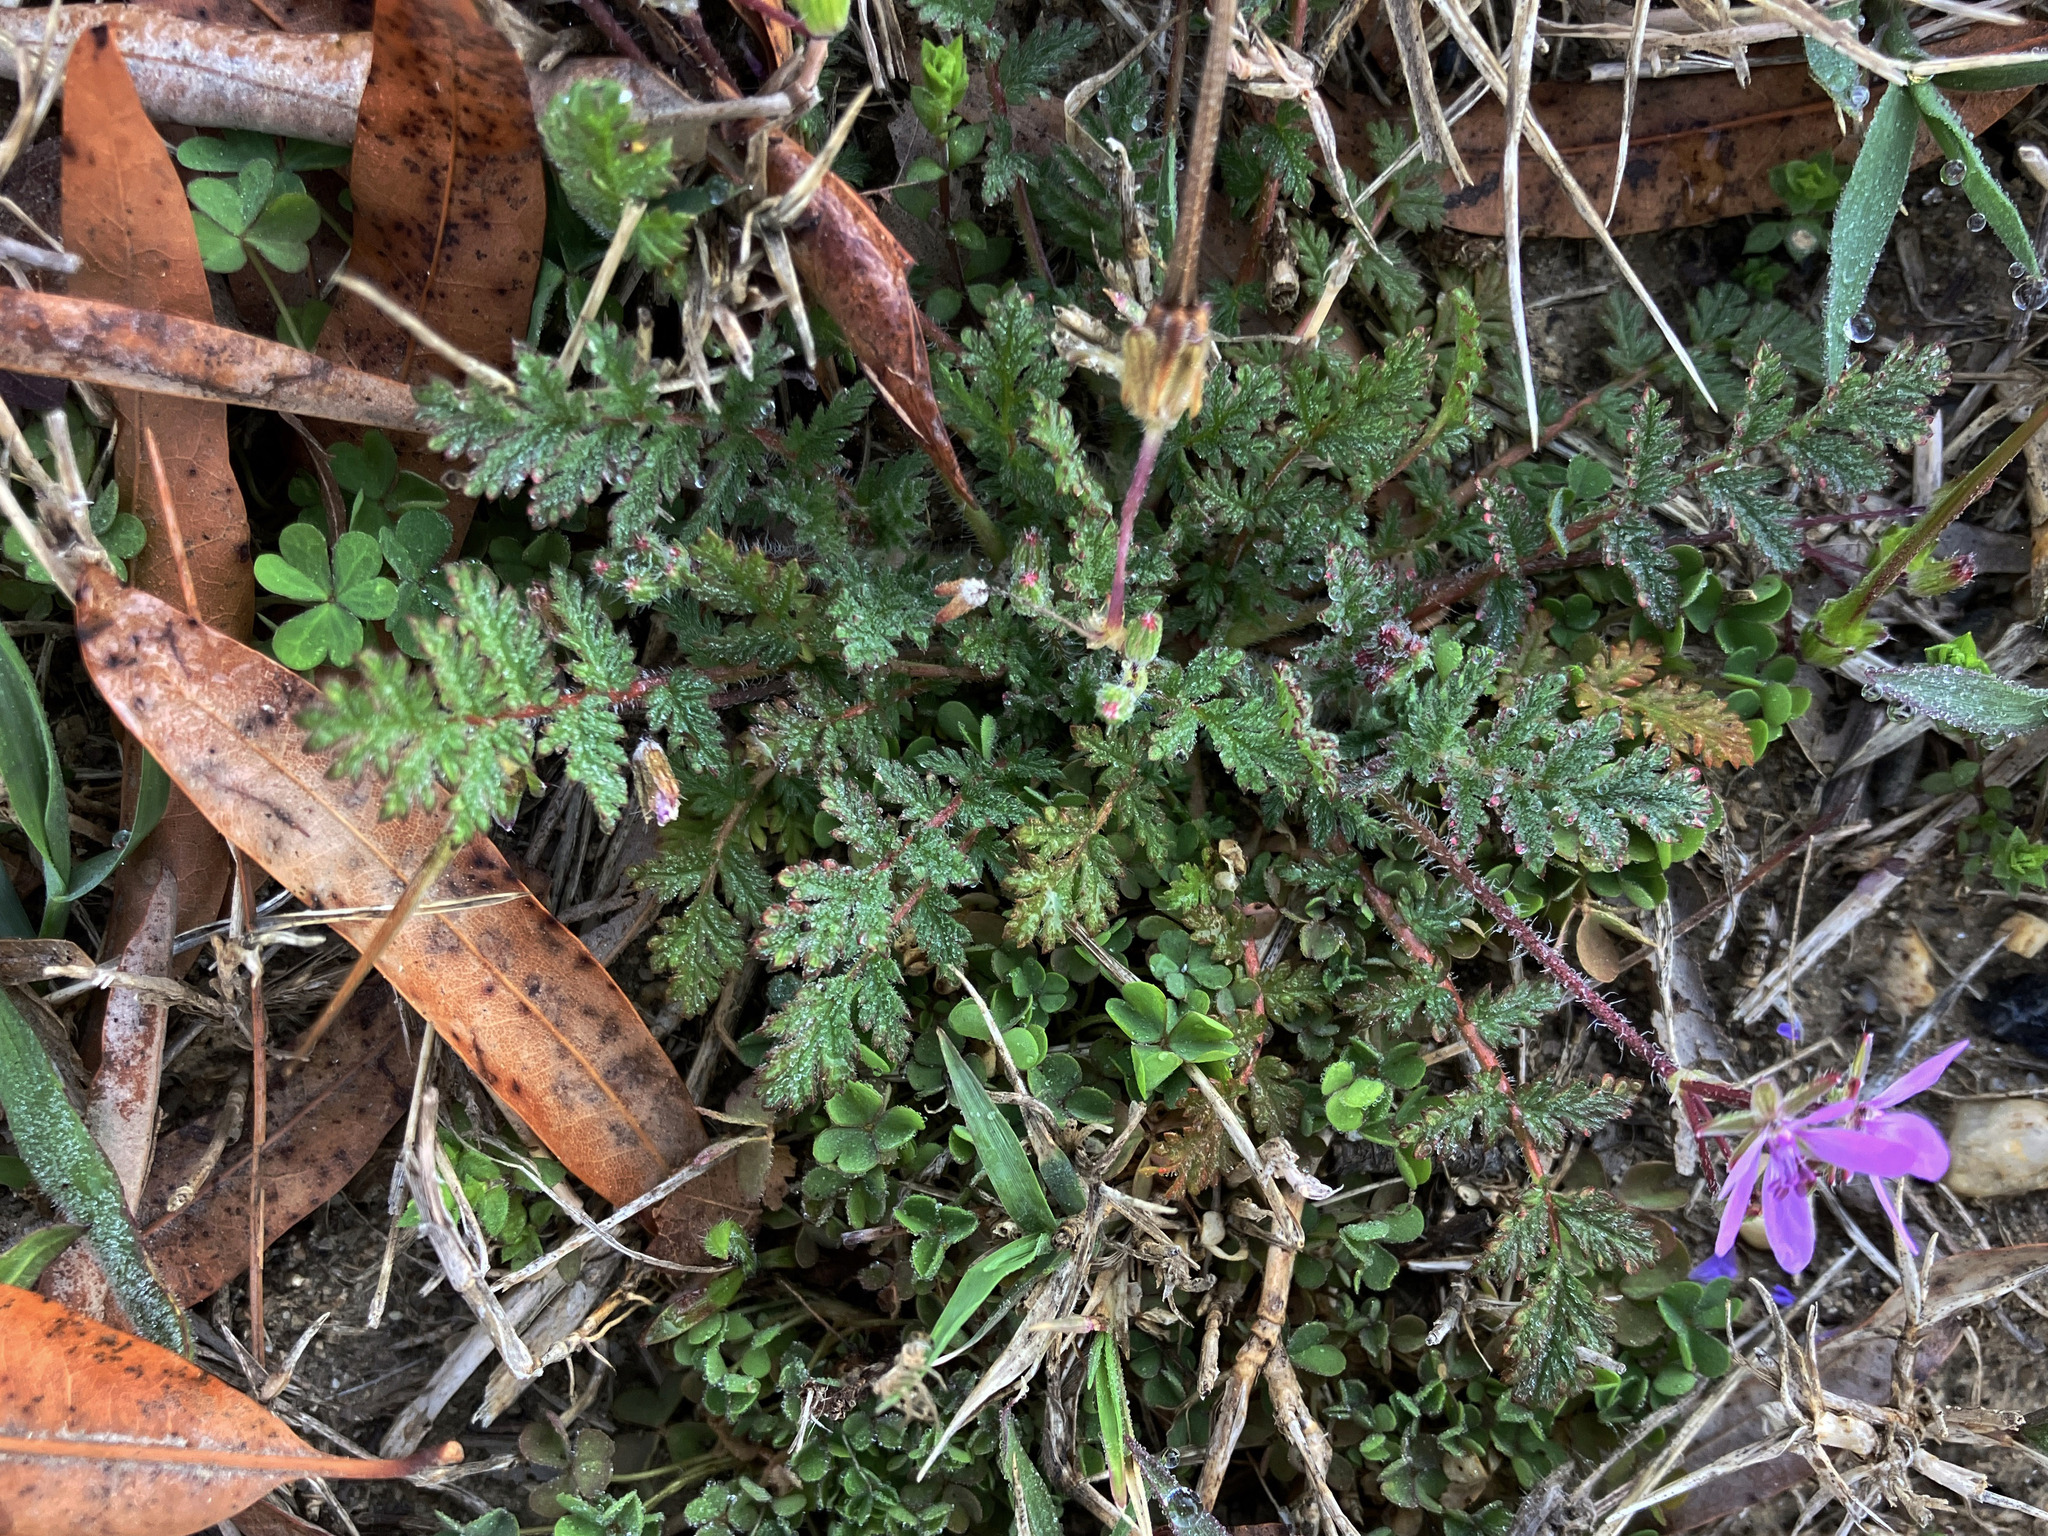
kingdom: Plantae
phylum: Tracheophyta
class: Magnoliopsida
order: Geraniales
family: Geraniaceae
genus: Erodium
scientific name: Erodium cicutarium
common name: Common stork's-bill
